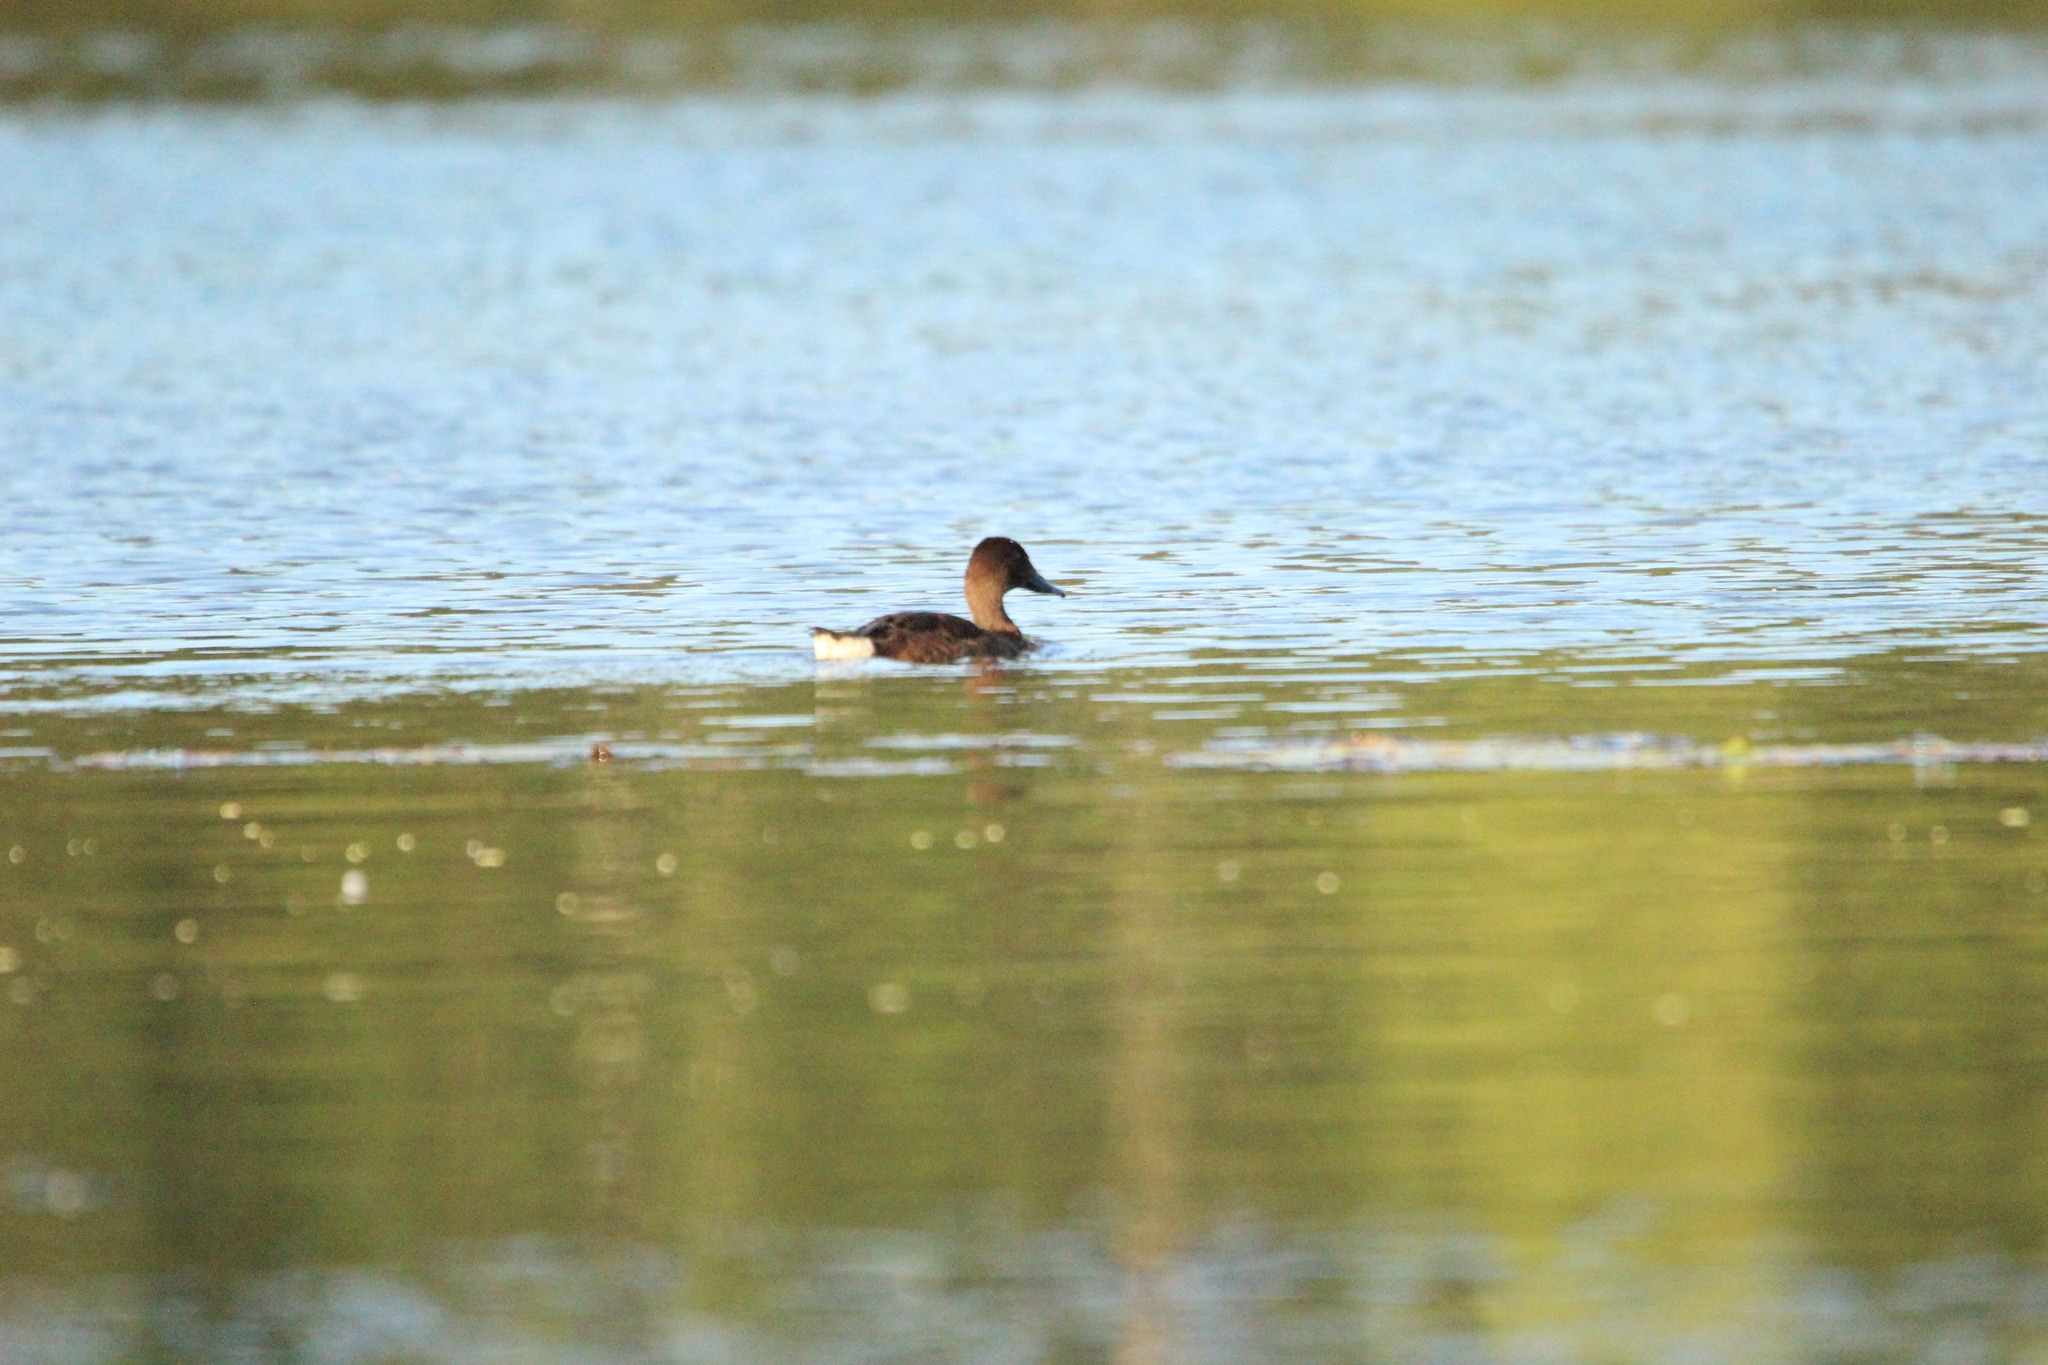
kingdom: Animalia
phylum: Chordata
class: Aves
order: Anseriformes
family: Anatidae
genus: Aythya
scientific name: Aythya australis
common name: Hardhead
